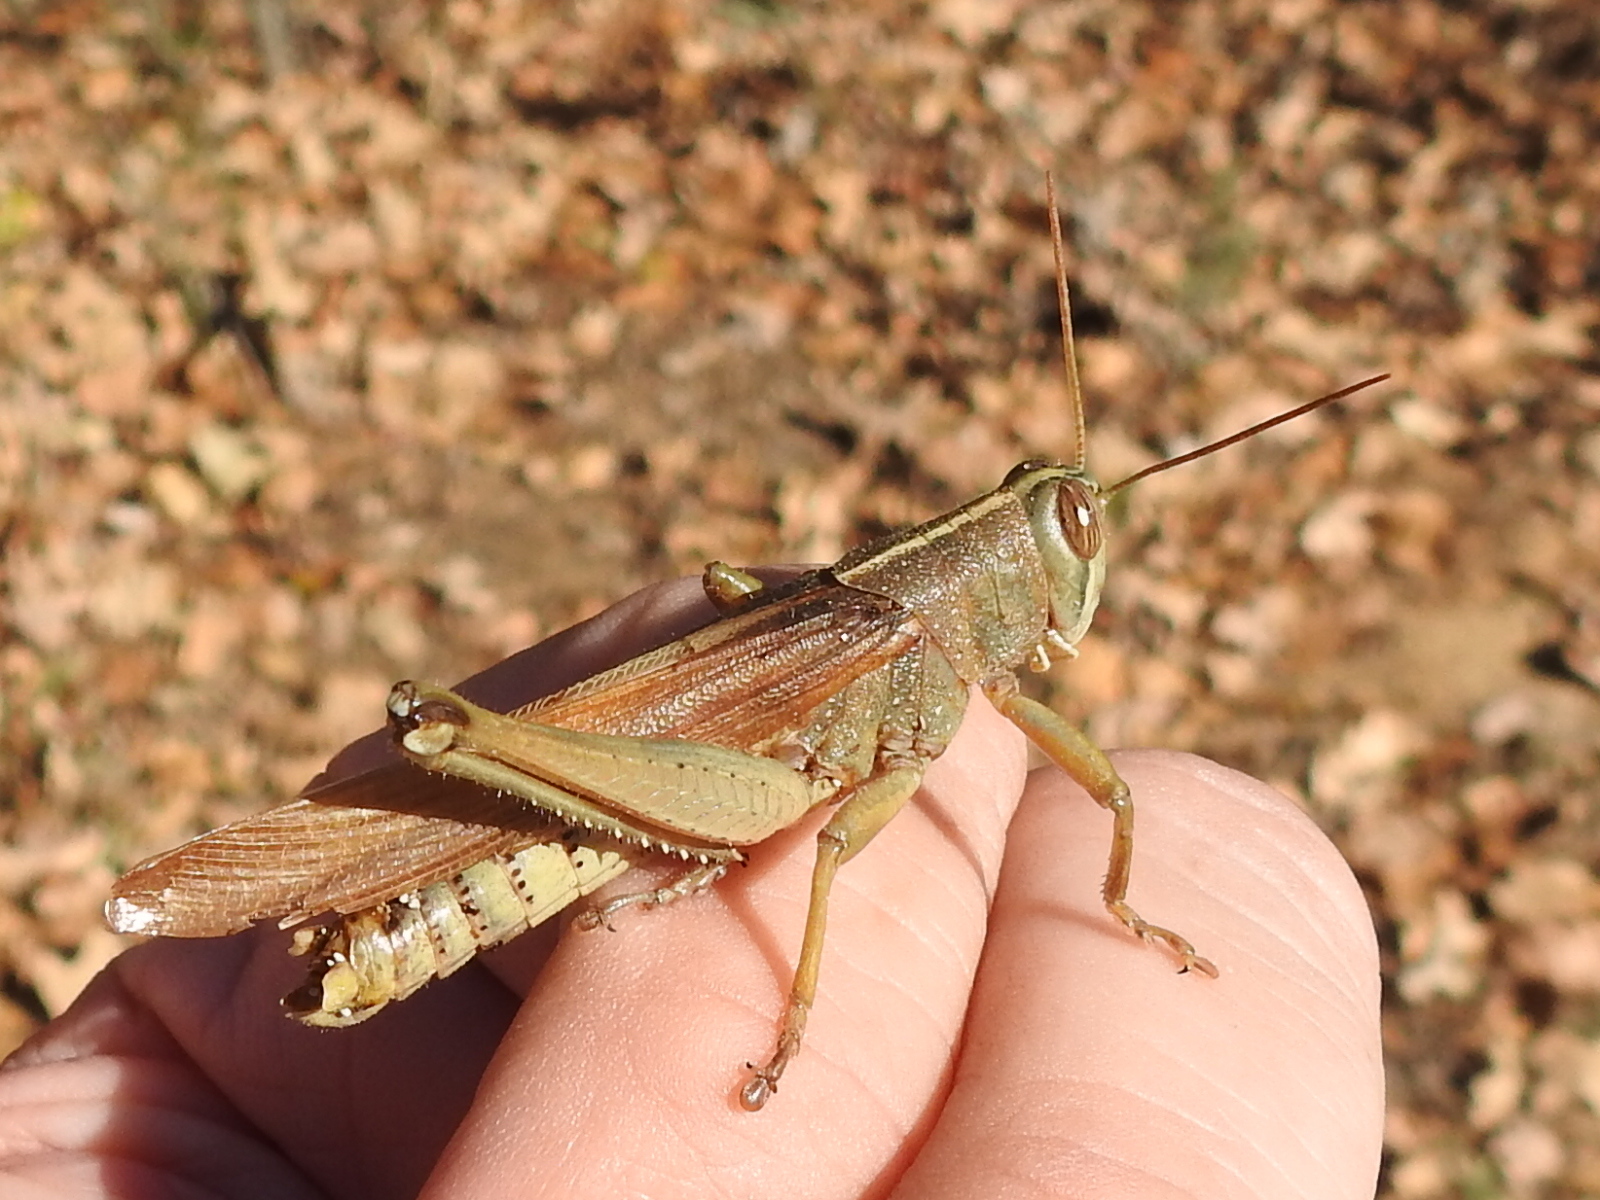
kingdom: Animalia
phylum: Arthropoda
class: Insecta
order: Orthoptera
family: Acrididae
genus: Schistocerca
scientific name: Schistocerca lineata
